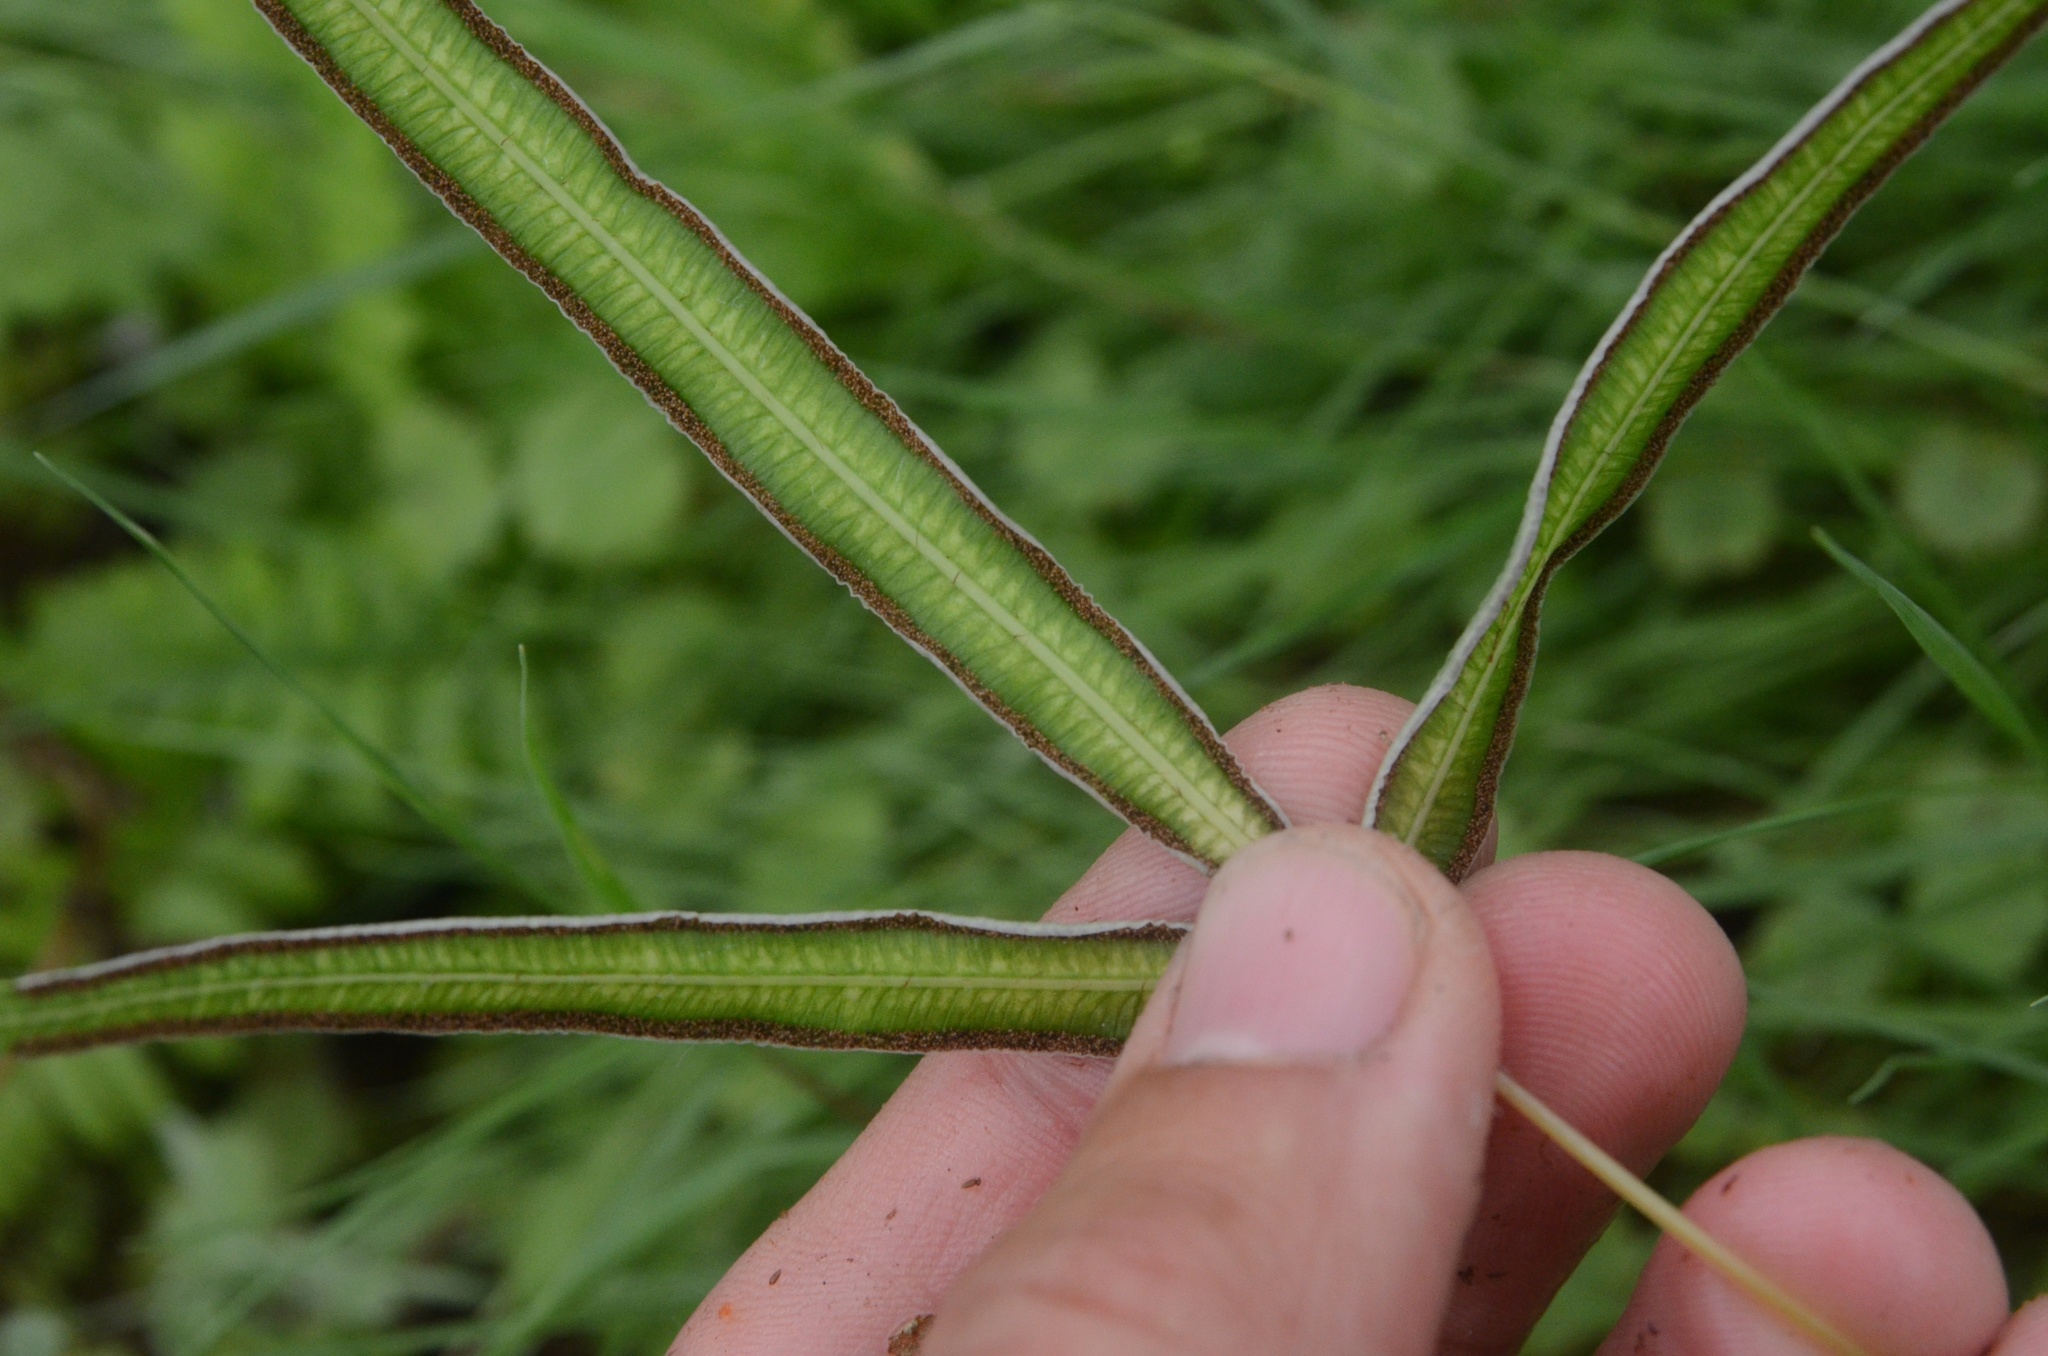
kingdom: Plantae
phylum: Tracheophyta
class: Polypodiopsida
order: Polypodiales
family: Pteridaceae
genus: Pteris
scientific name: Pteris cretica
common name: Ribbon fern
